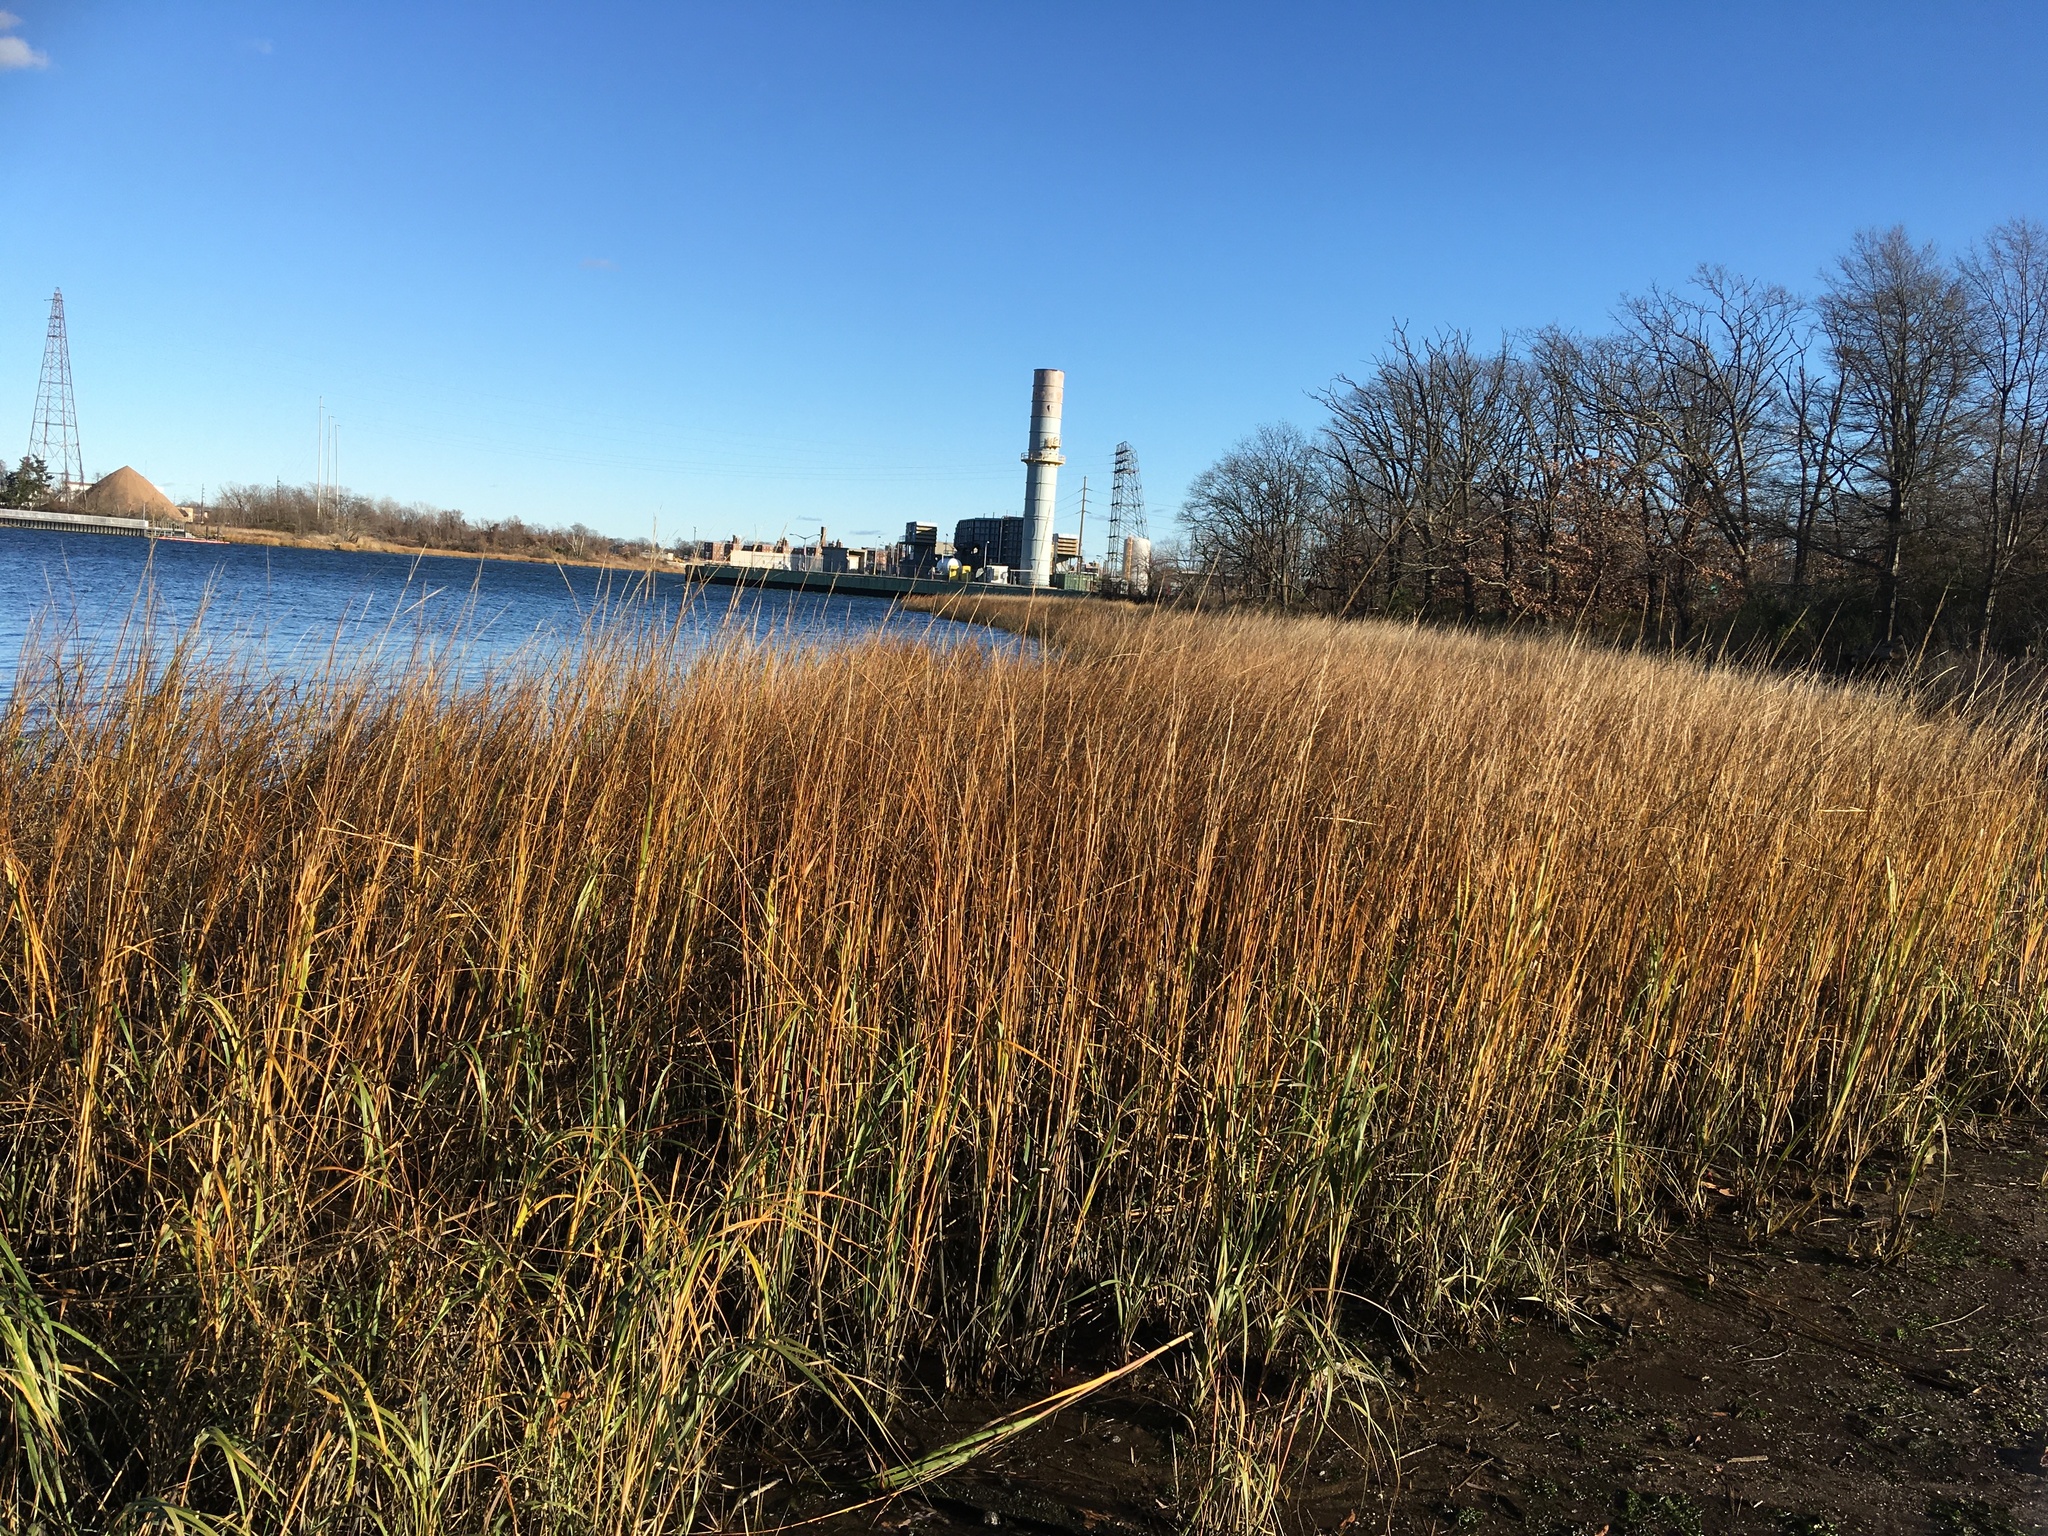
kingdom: Plantae
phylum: Tracheophyta
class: Liliopsida
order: Poales
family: Poaceae
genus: Sporobolus
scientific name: Sporobolus alterniflorus
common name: Atlantic cordgrass
